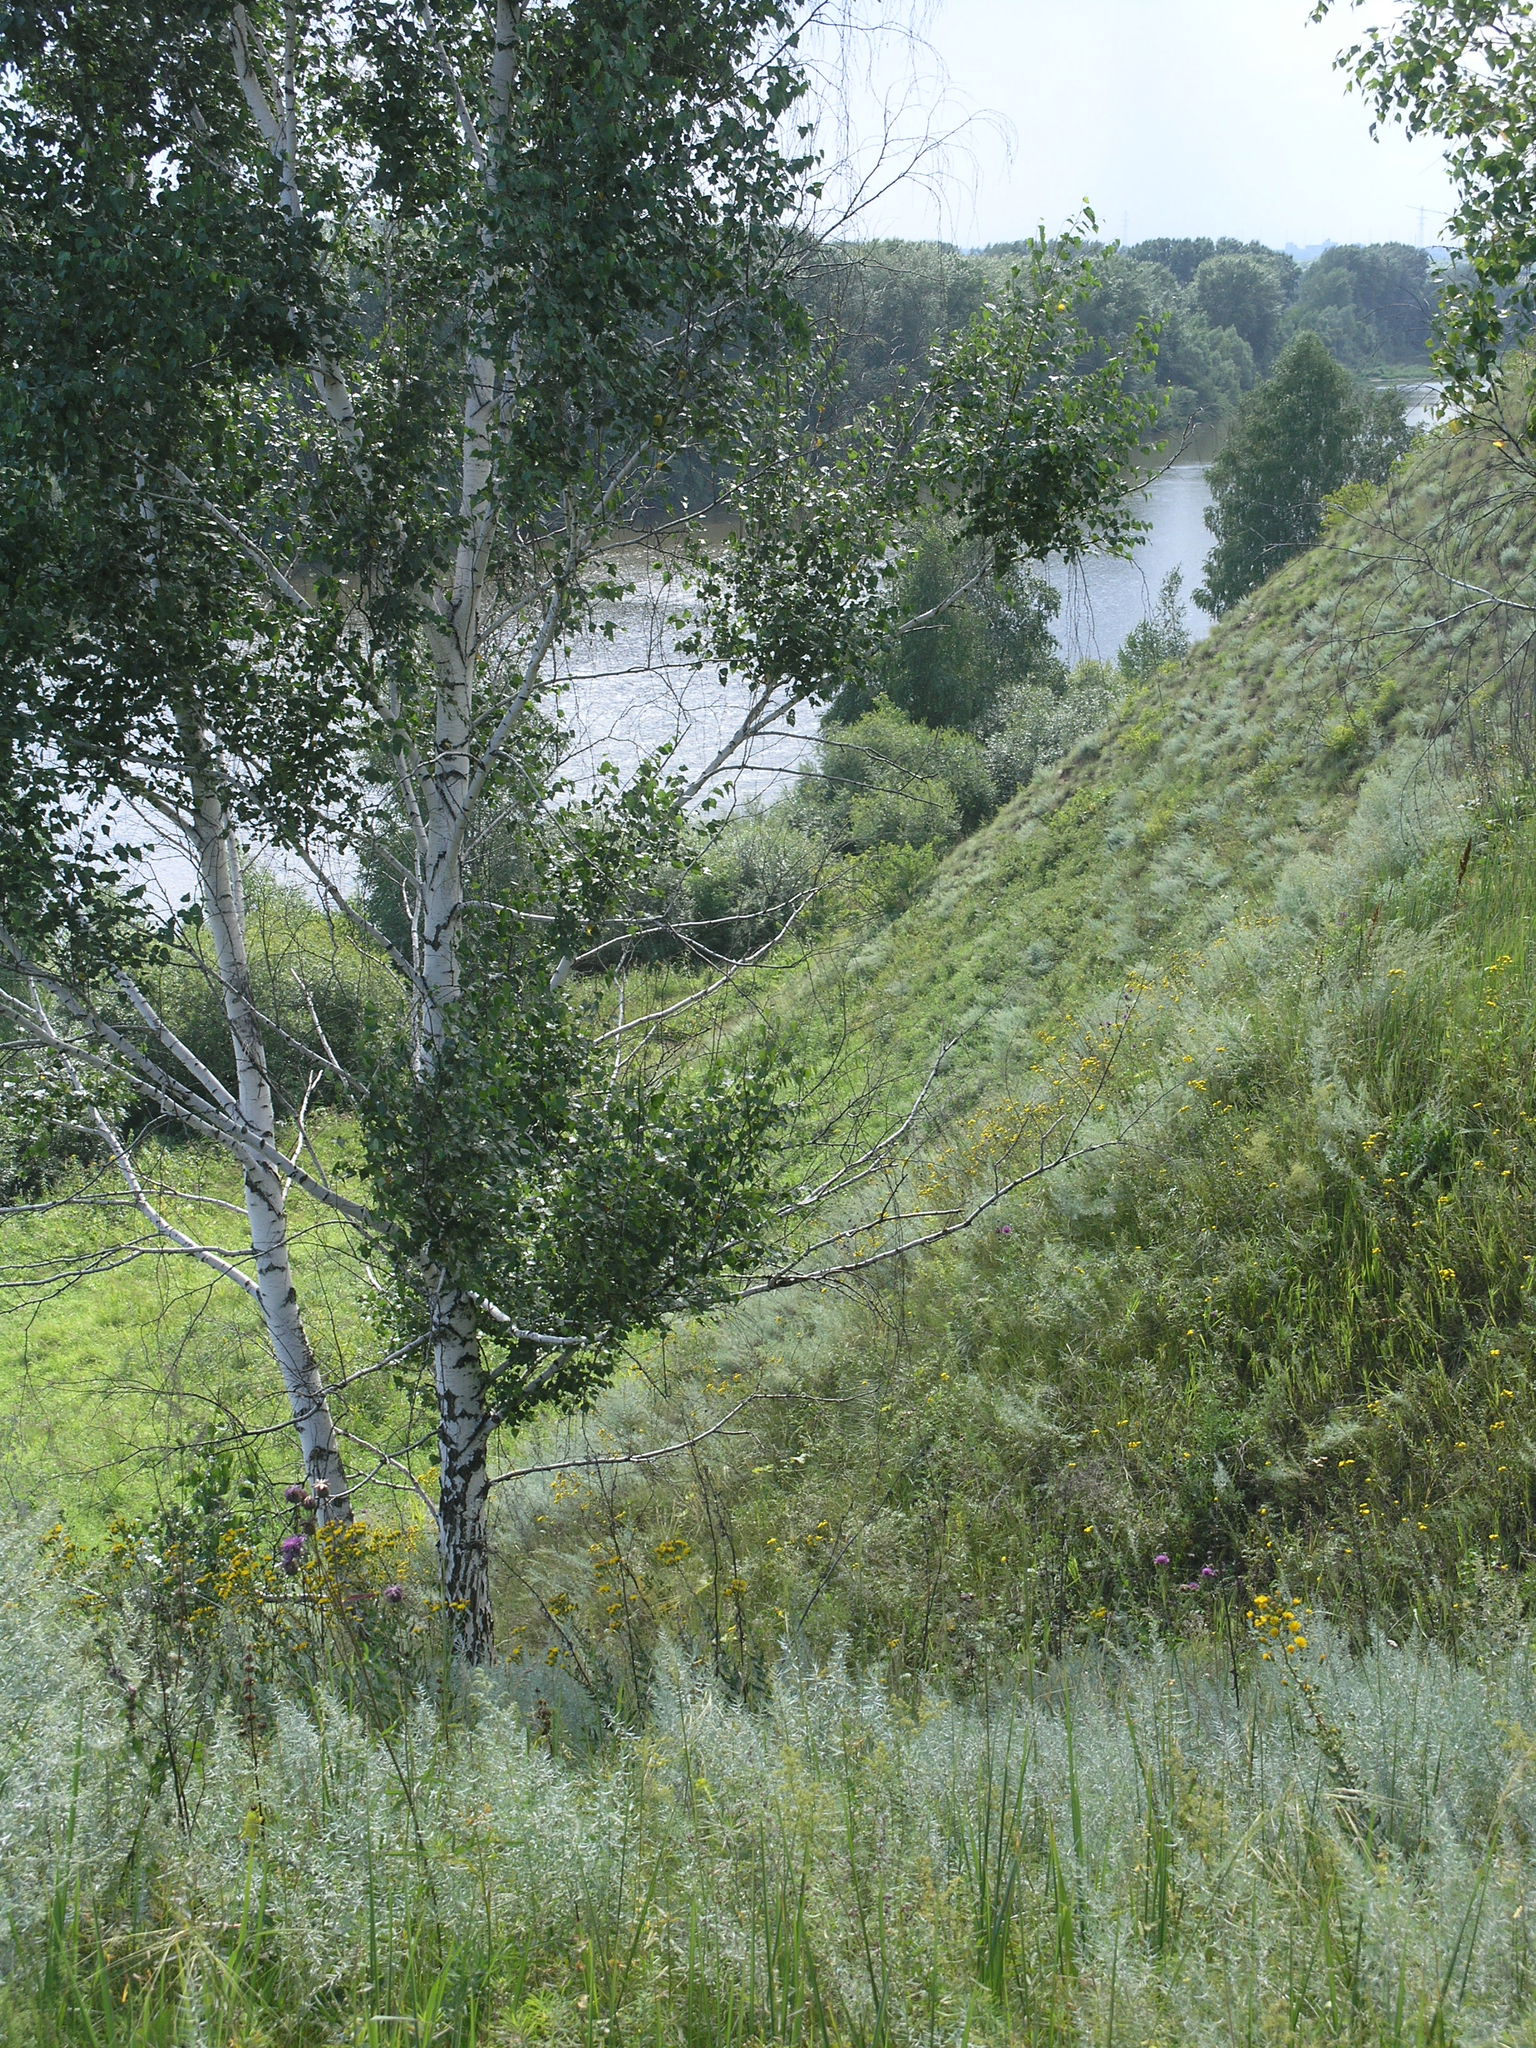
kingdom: Plantae
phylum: Tracheophyta
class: Magnoliopsida
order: Fagales
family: Betulaceae
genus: Betula
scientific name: Betula pendula
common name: Silver birch
